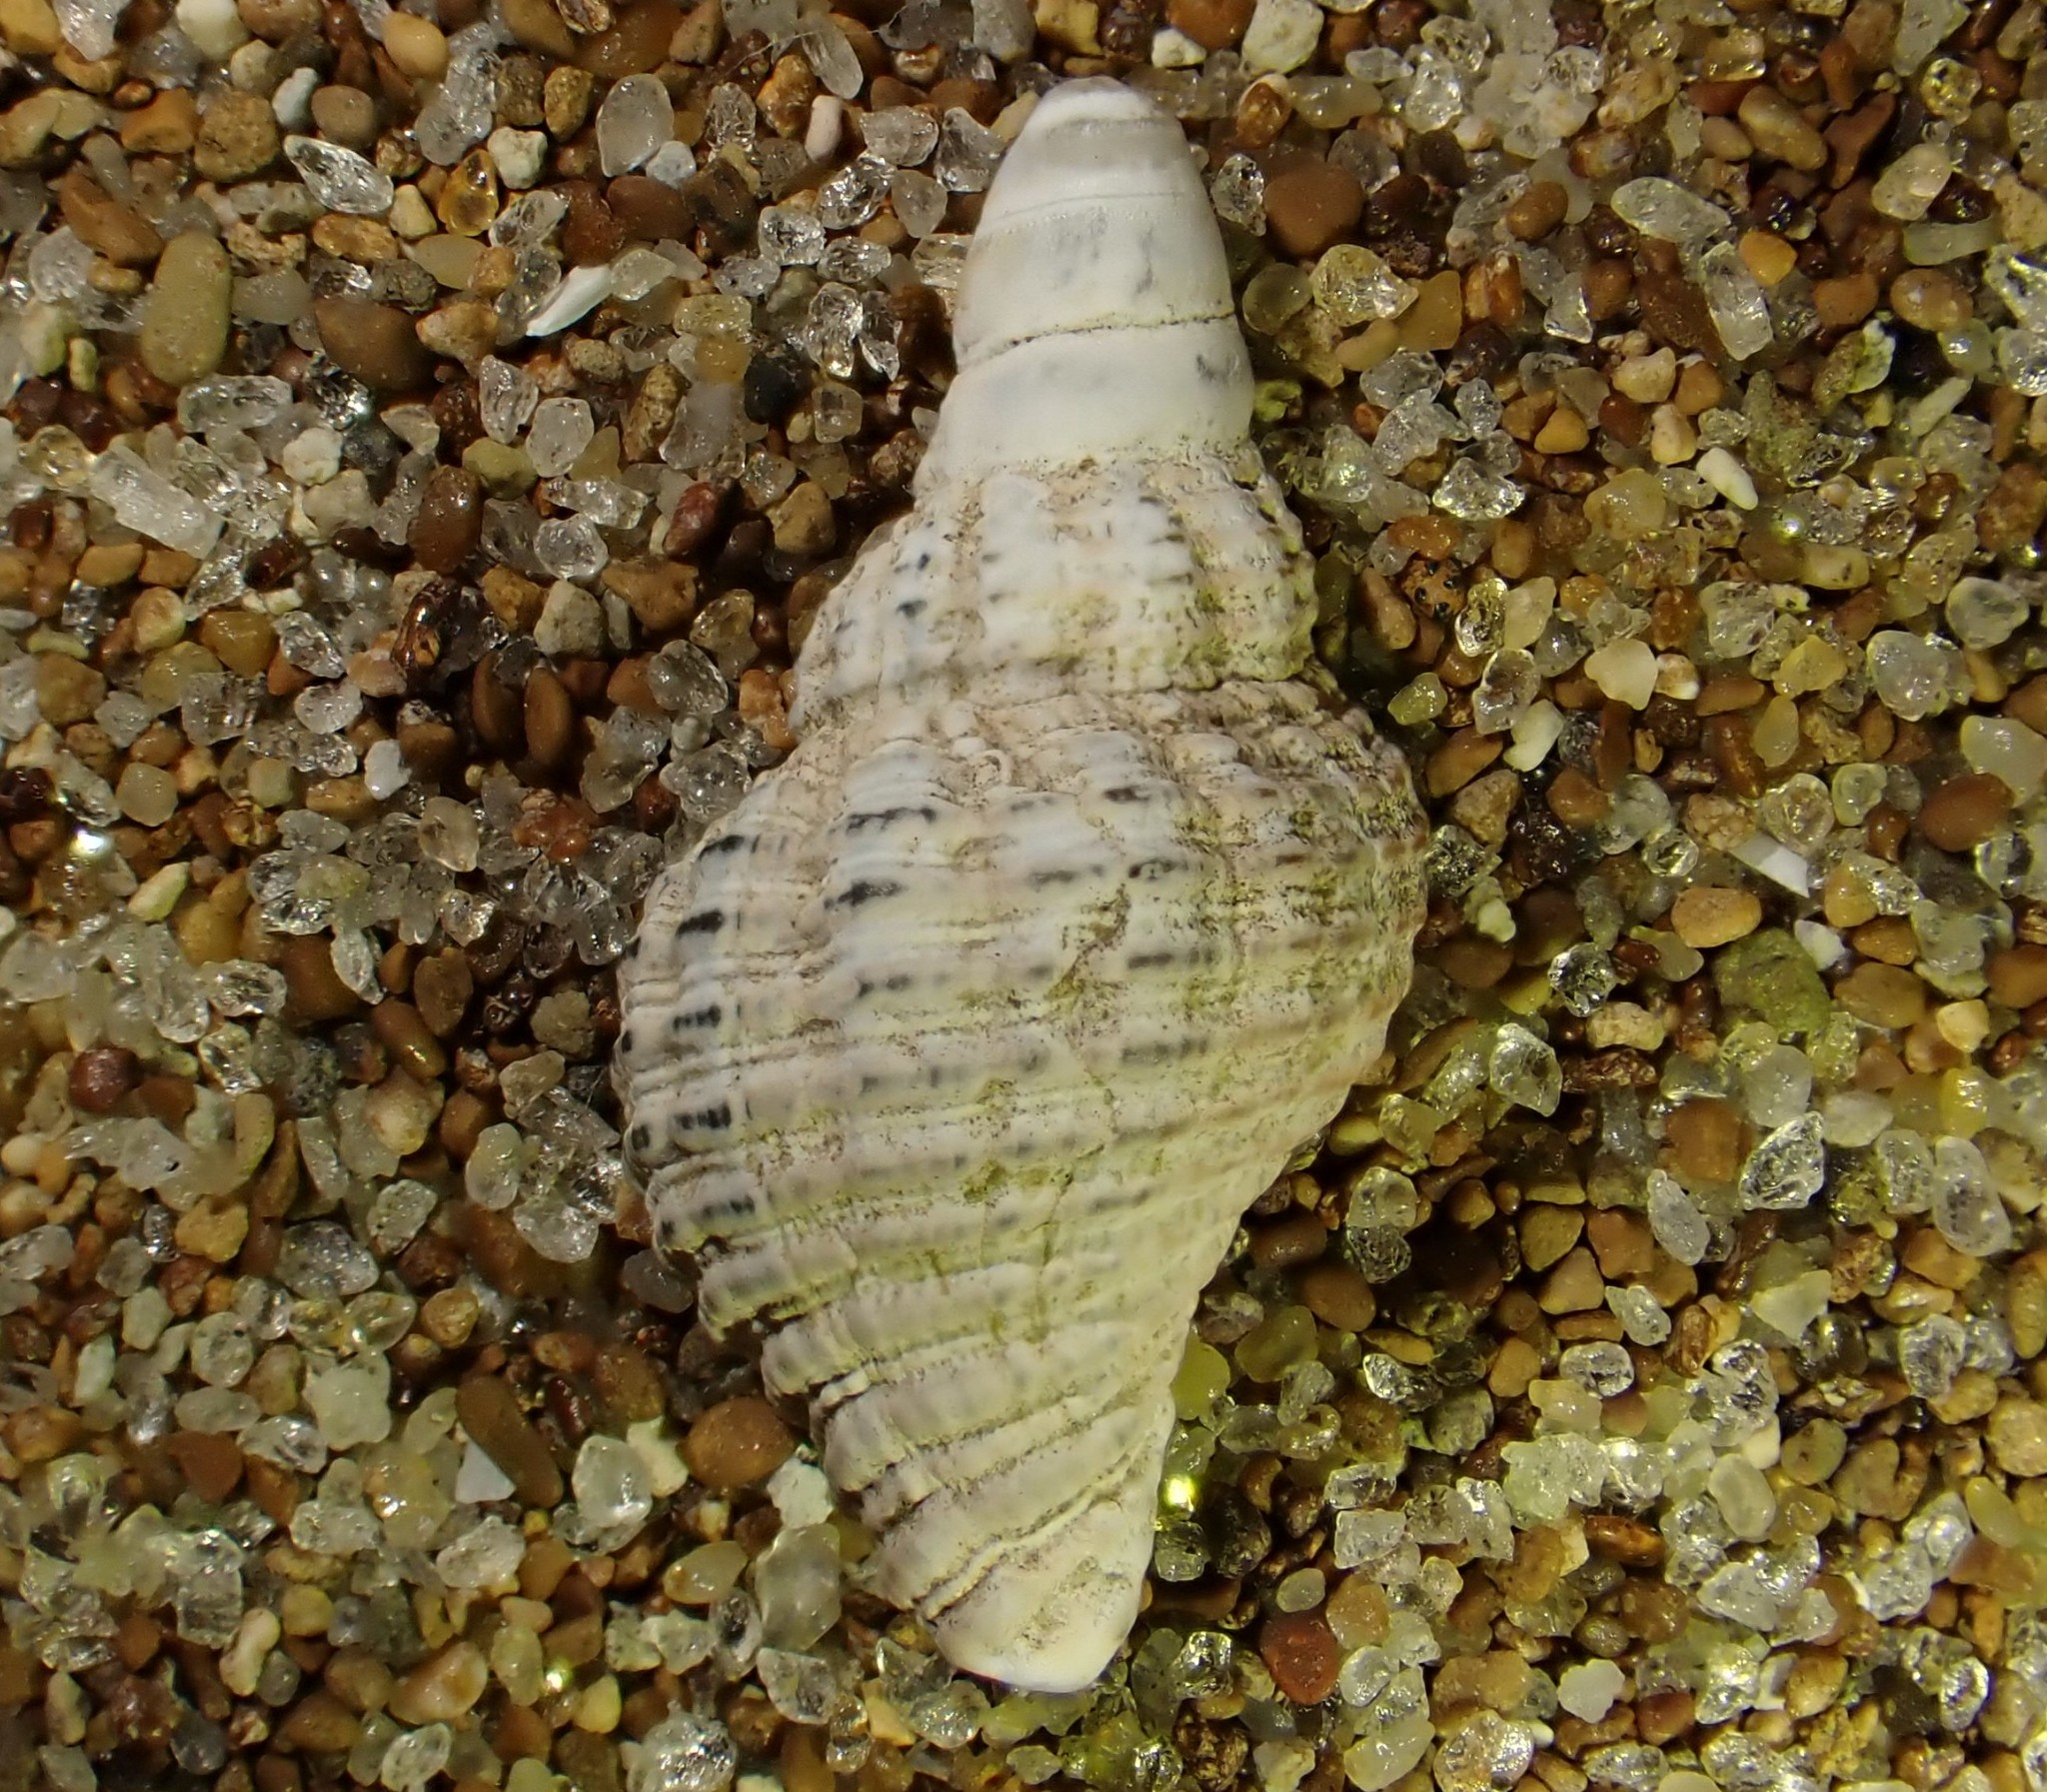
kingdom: Animalia
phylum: Mollusca
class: Gastropoda
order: Neogastropoda
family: Austrosiphonidae
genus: Penion
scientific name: Penion sulcatus
